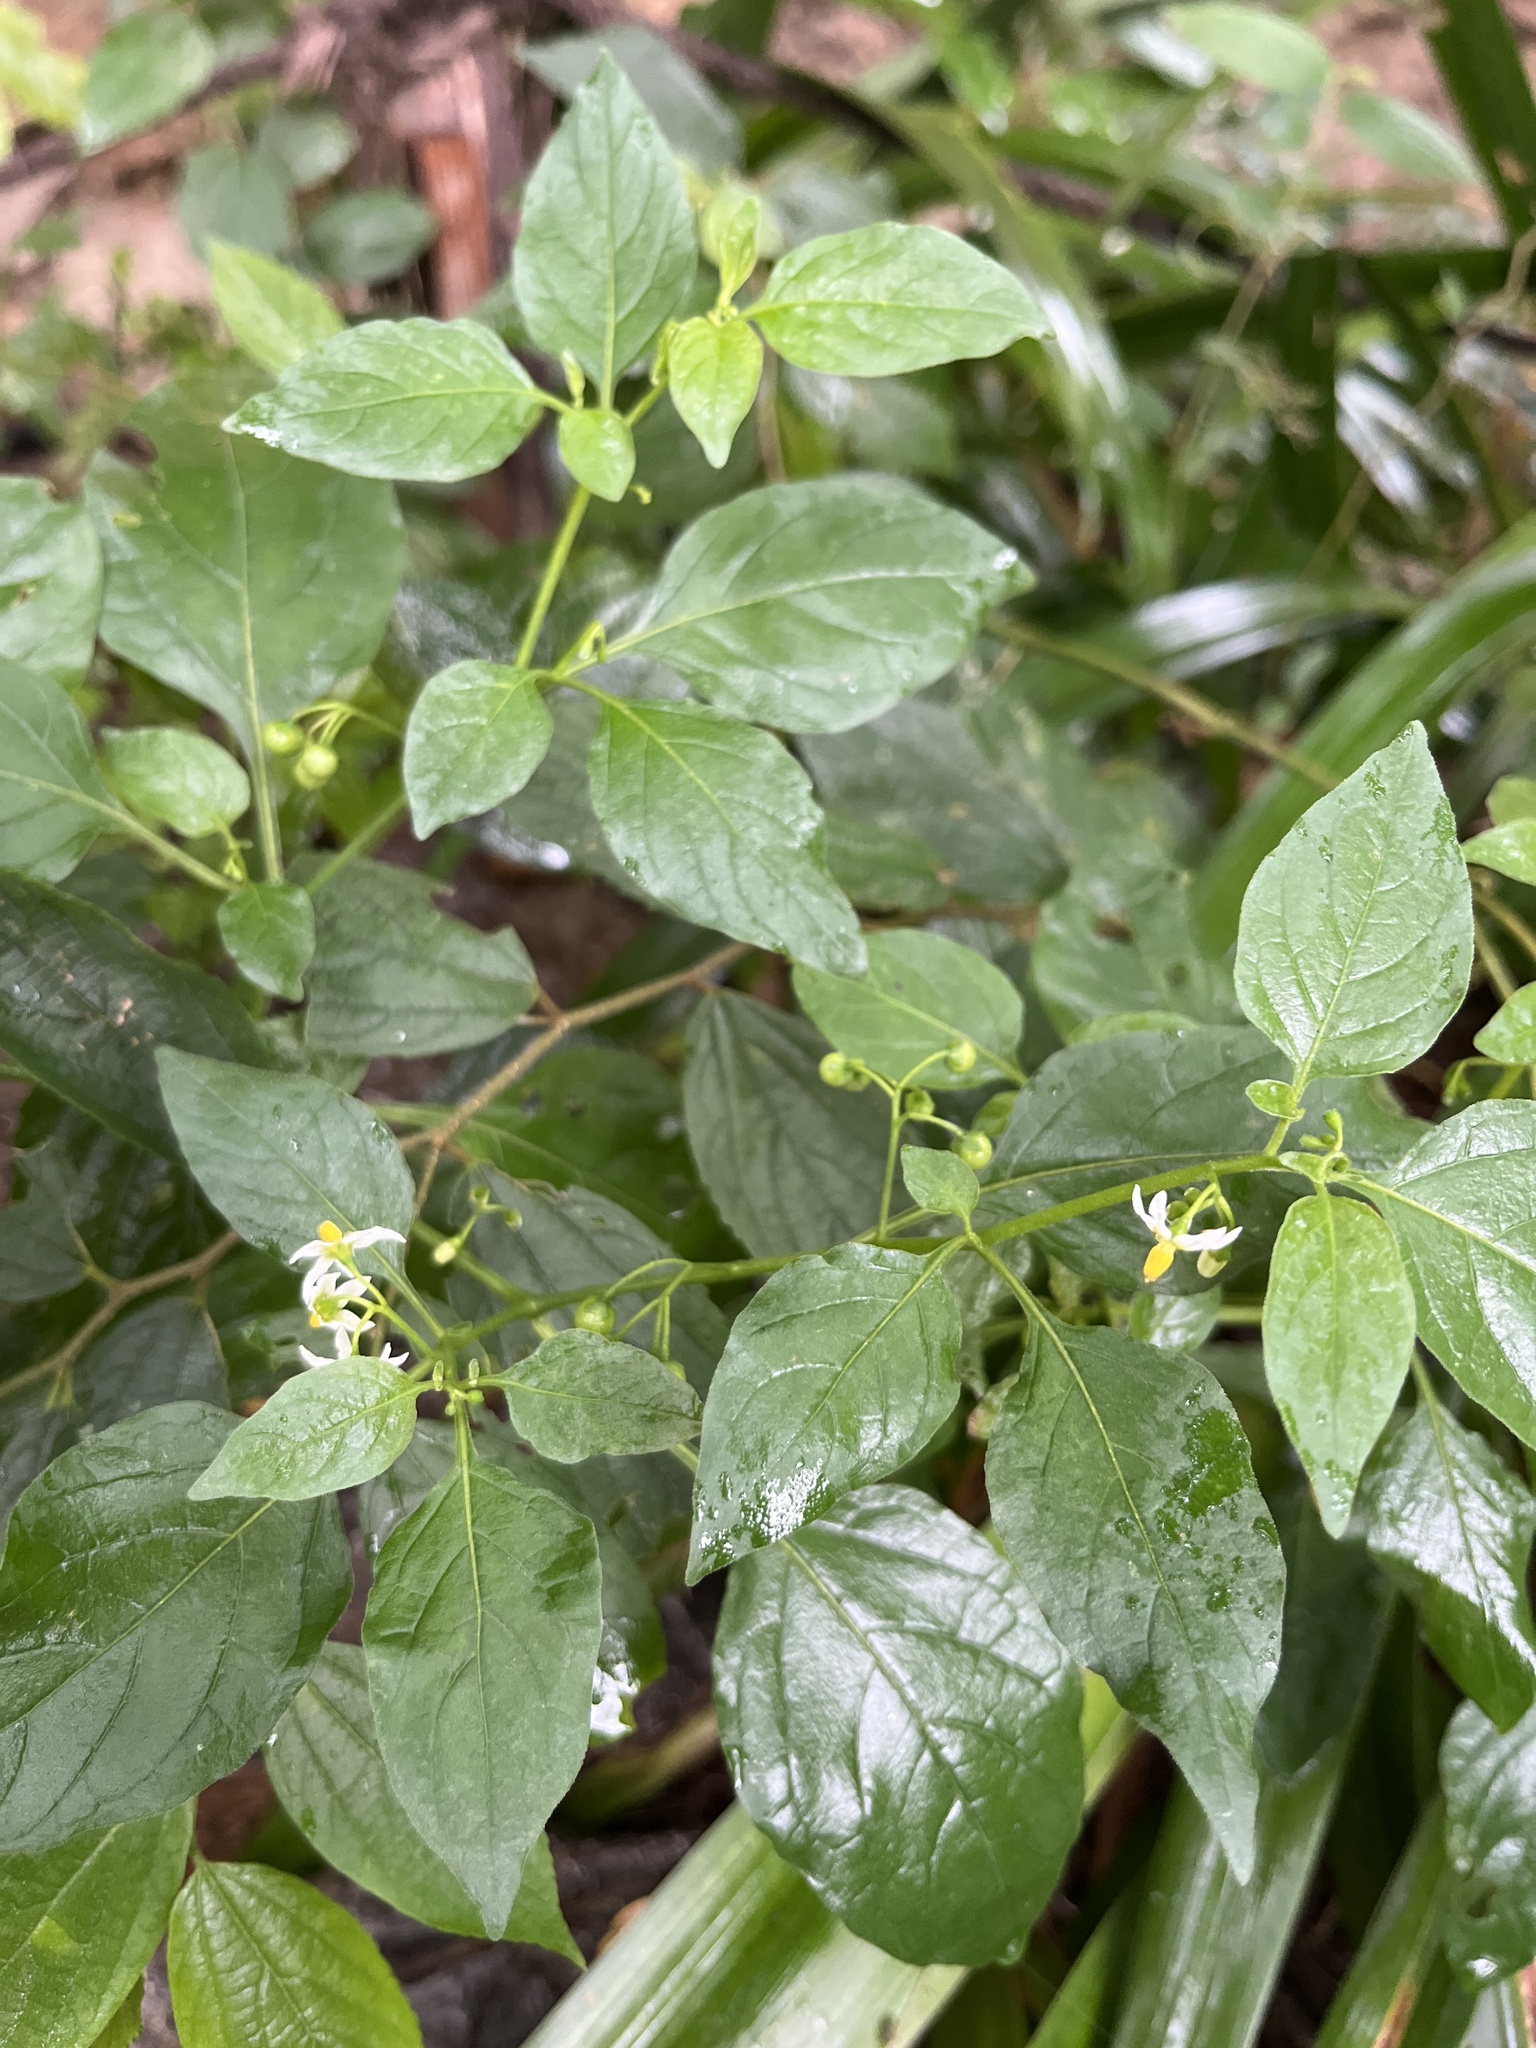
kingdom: Plantae
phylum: Tracheophyta
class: Magnoliopsida
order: Solanales
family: Solanaceae
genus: Solanum
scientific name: Solanum nigrum
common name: Black nightshade
